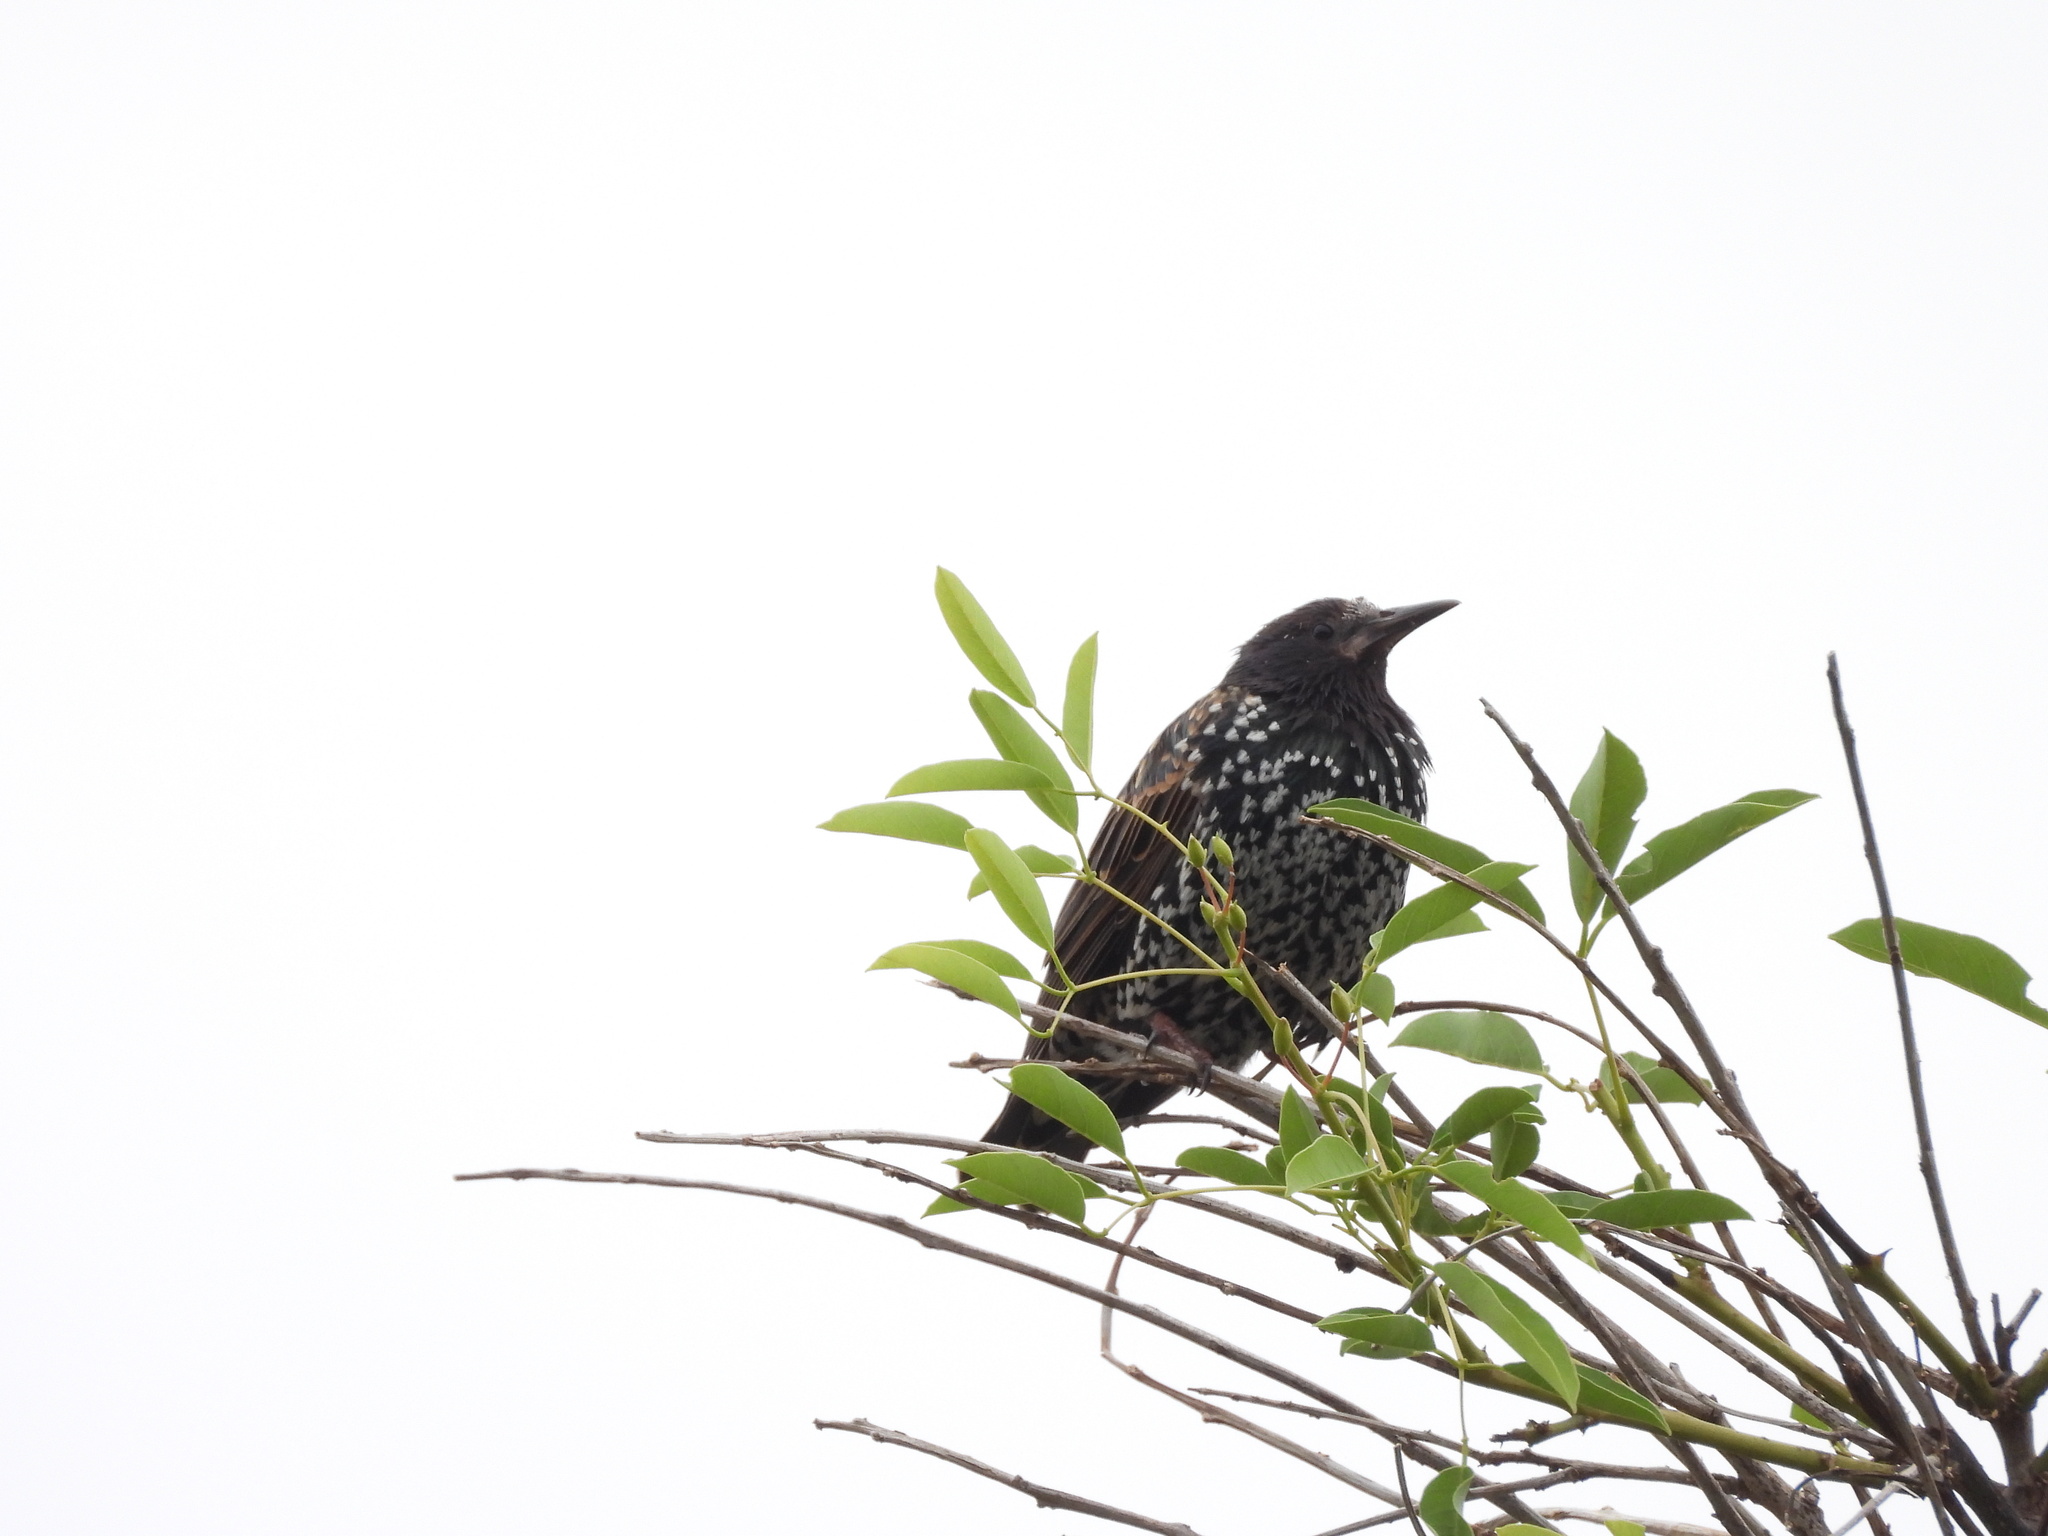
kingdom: Animalia
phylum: Chordata
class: Aves
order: Passeriformes
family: Sturnidae
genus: Sturnus
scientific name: Sturnus vulgaris
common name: Common starling
